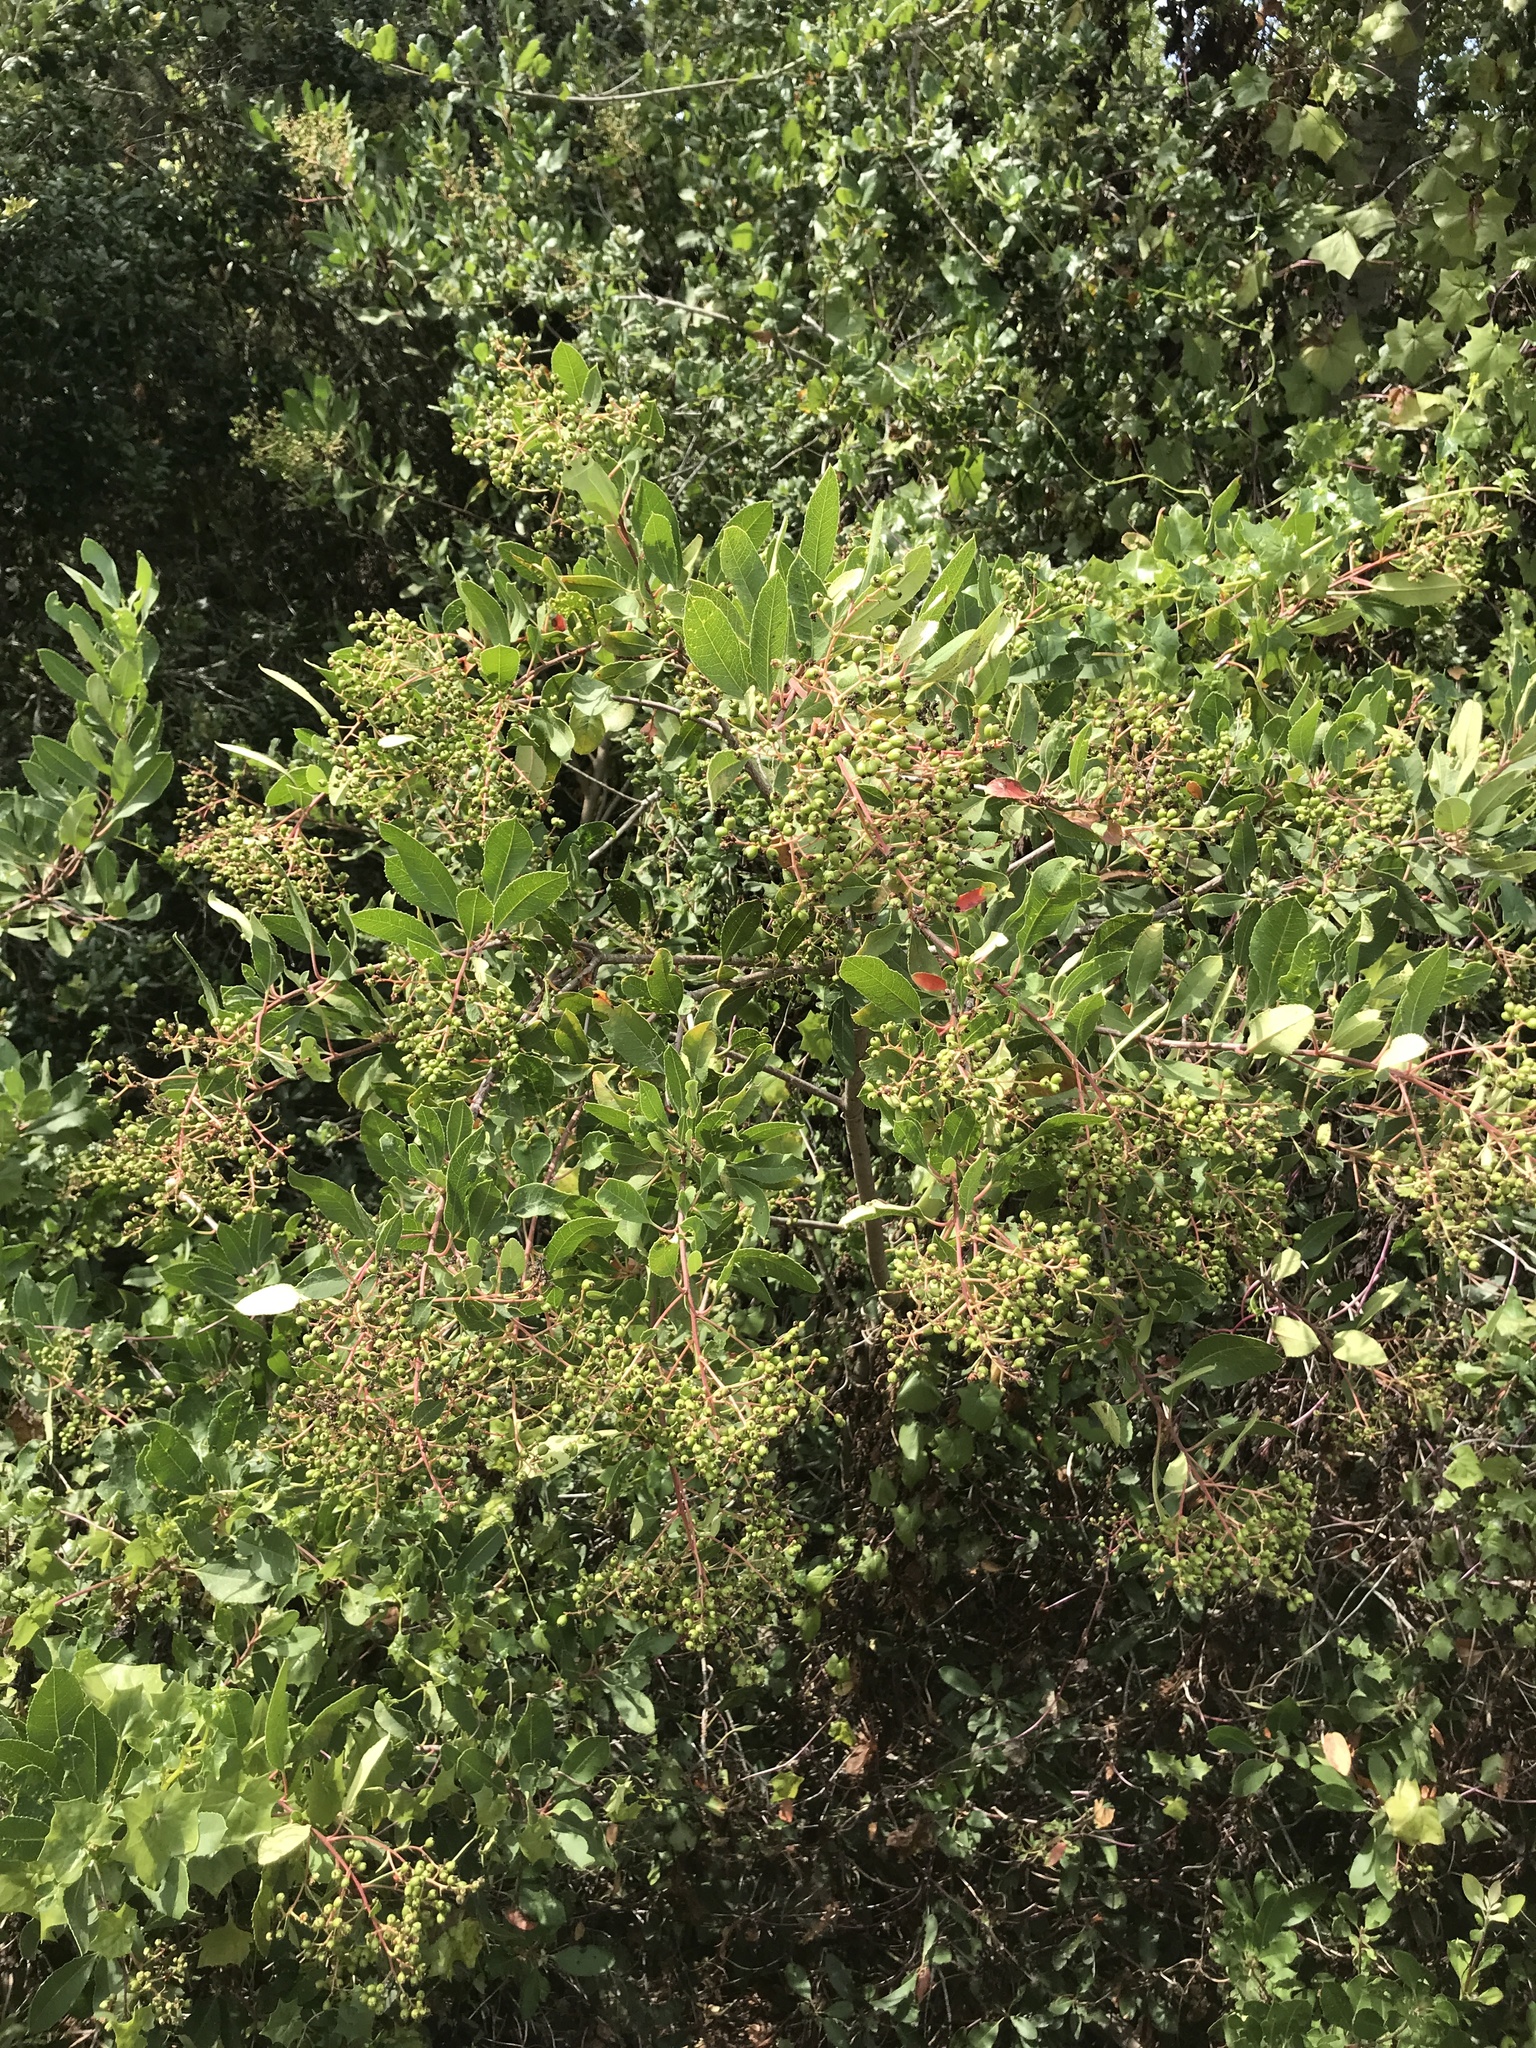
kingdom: Plantae
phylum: Tracheophyta
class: Magnoliopsida
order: Rosales
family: Rosaceae
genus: Heteromeles
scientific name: Heteromeles arbutifolia
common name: California-holly
